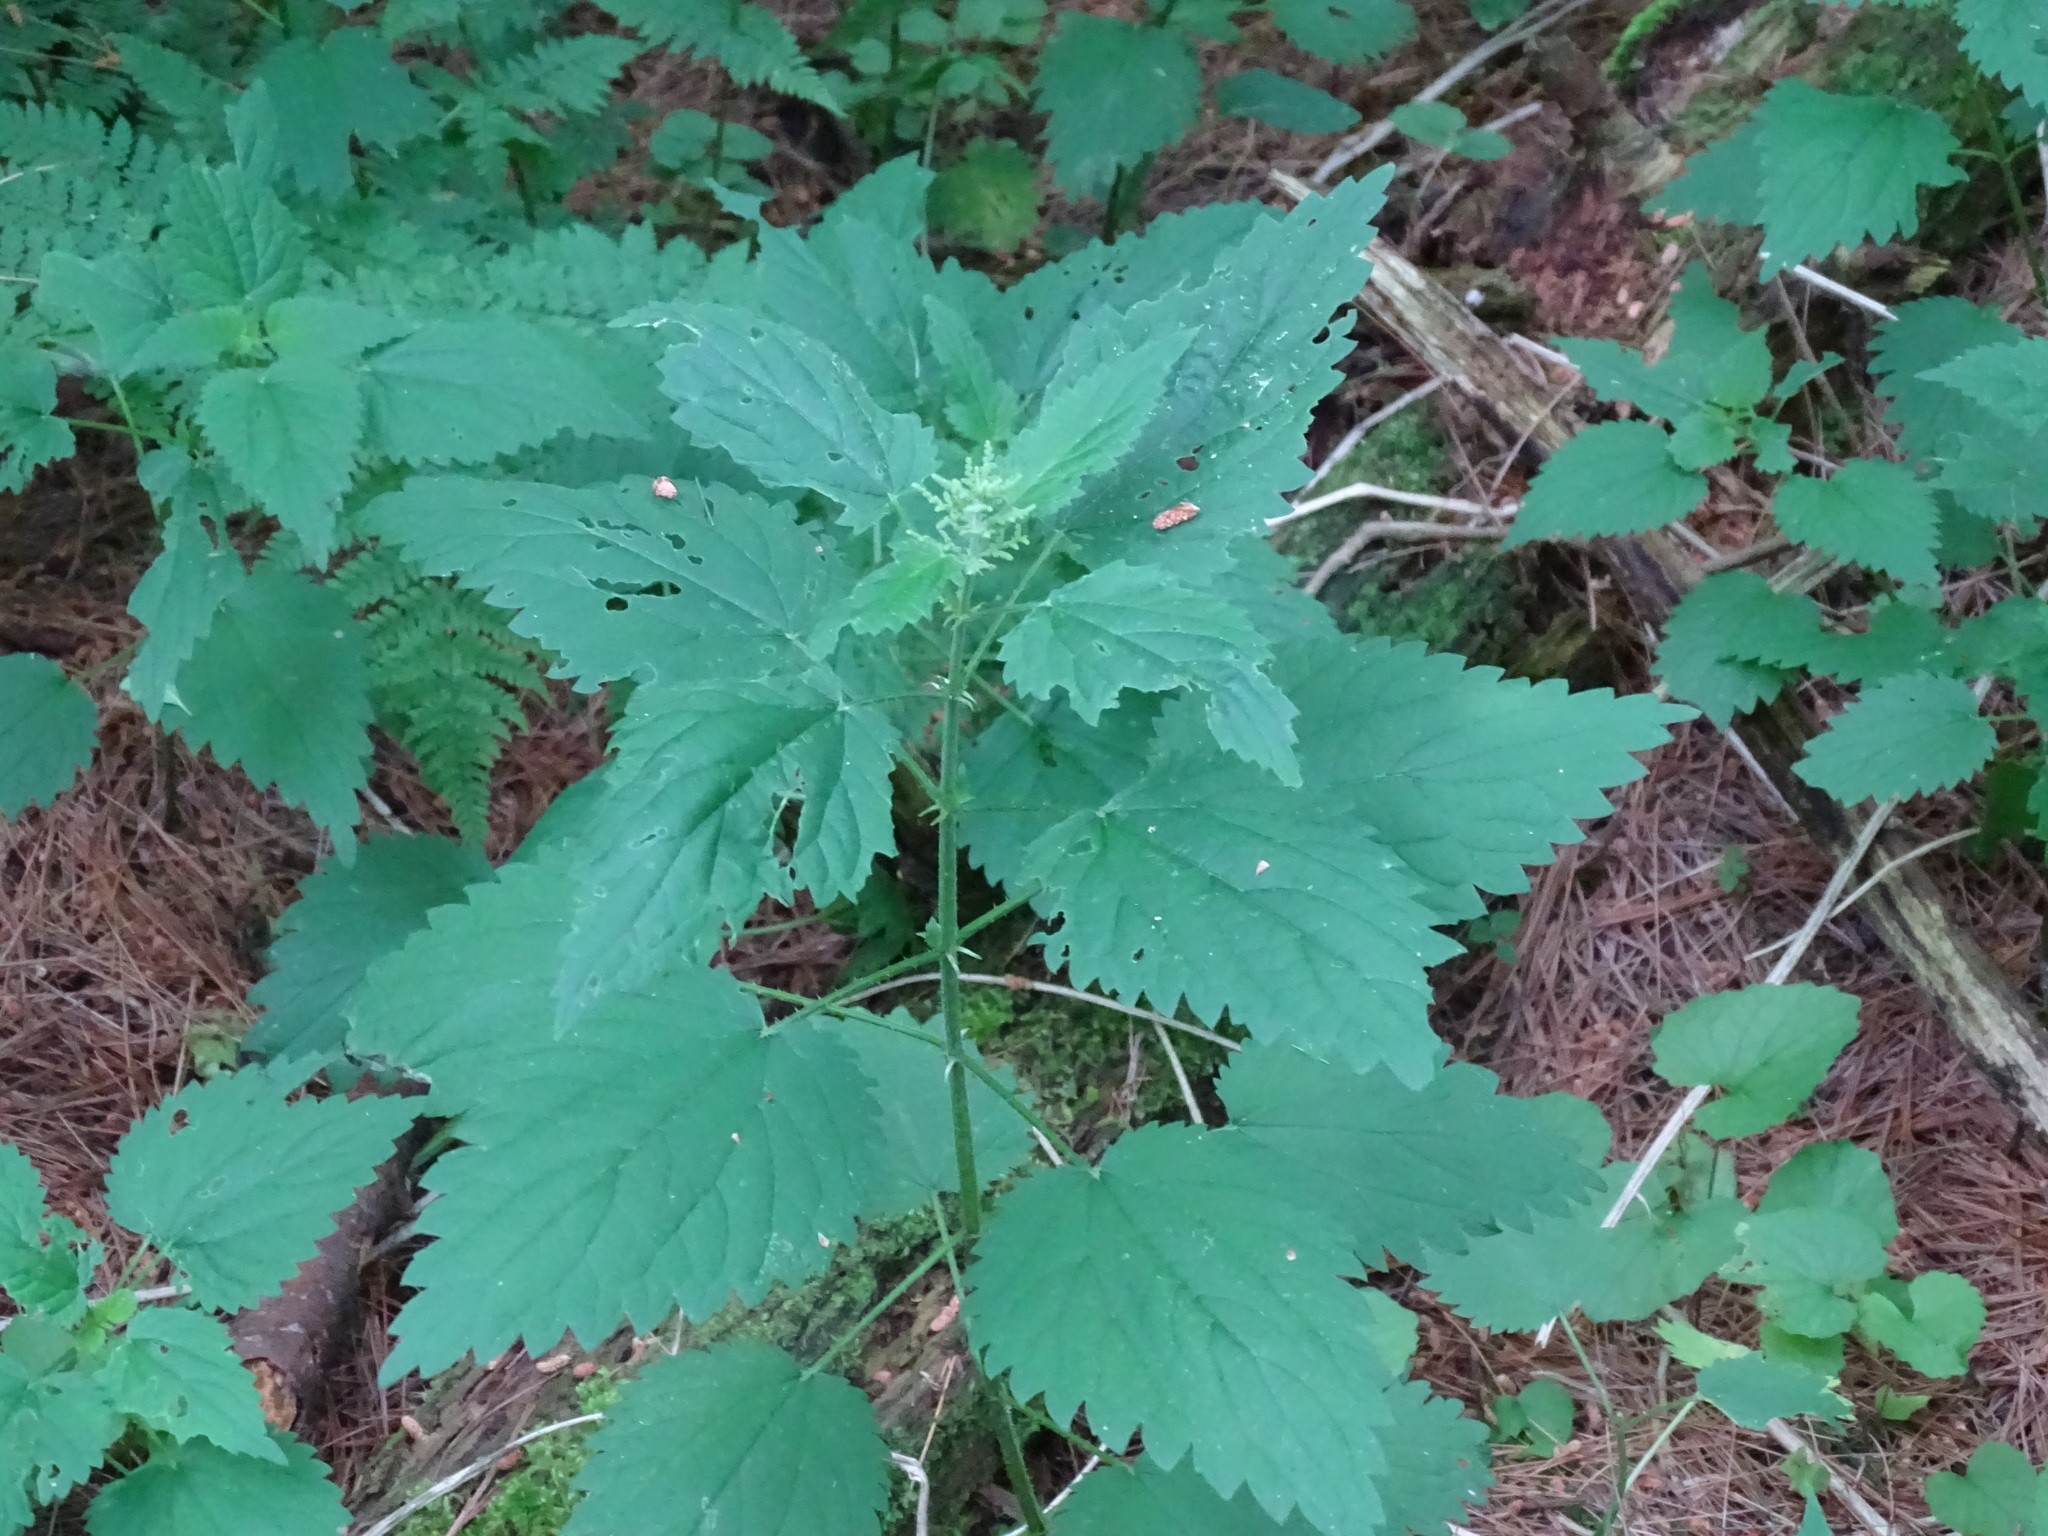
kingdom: Plantae
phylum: Tracheophyta
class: Magnoliopsida
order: Rosales
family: Urticaceae
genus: Urtica
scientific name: Urtica dioica
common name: Common nettle
